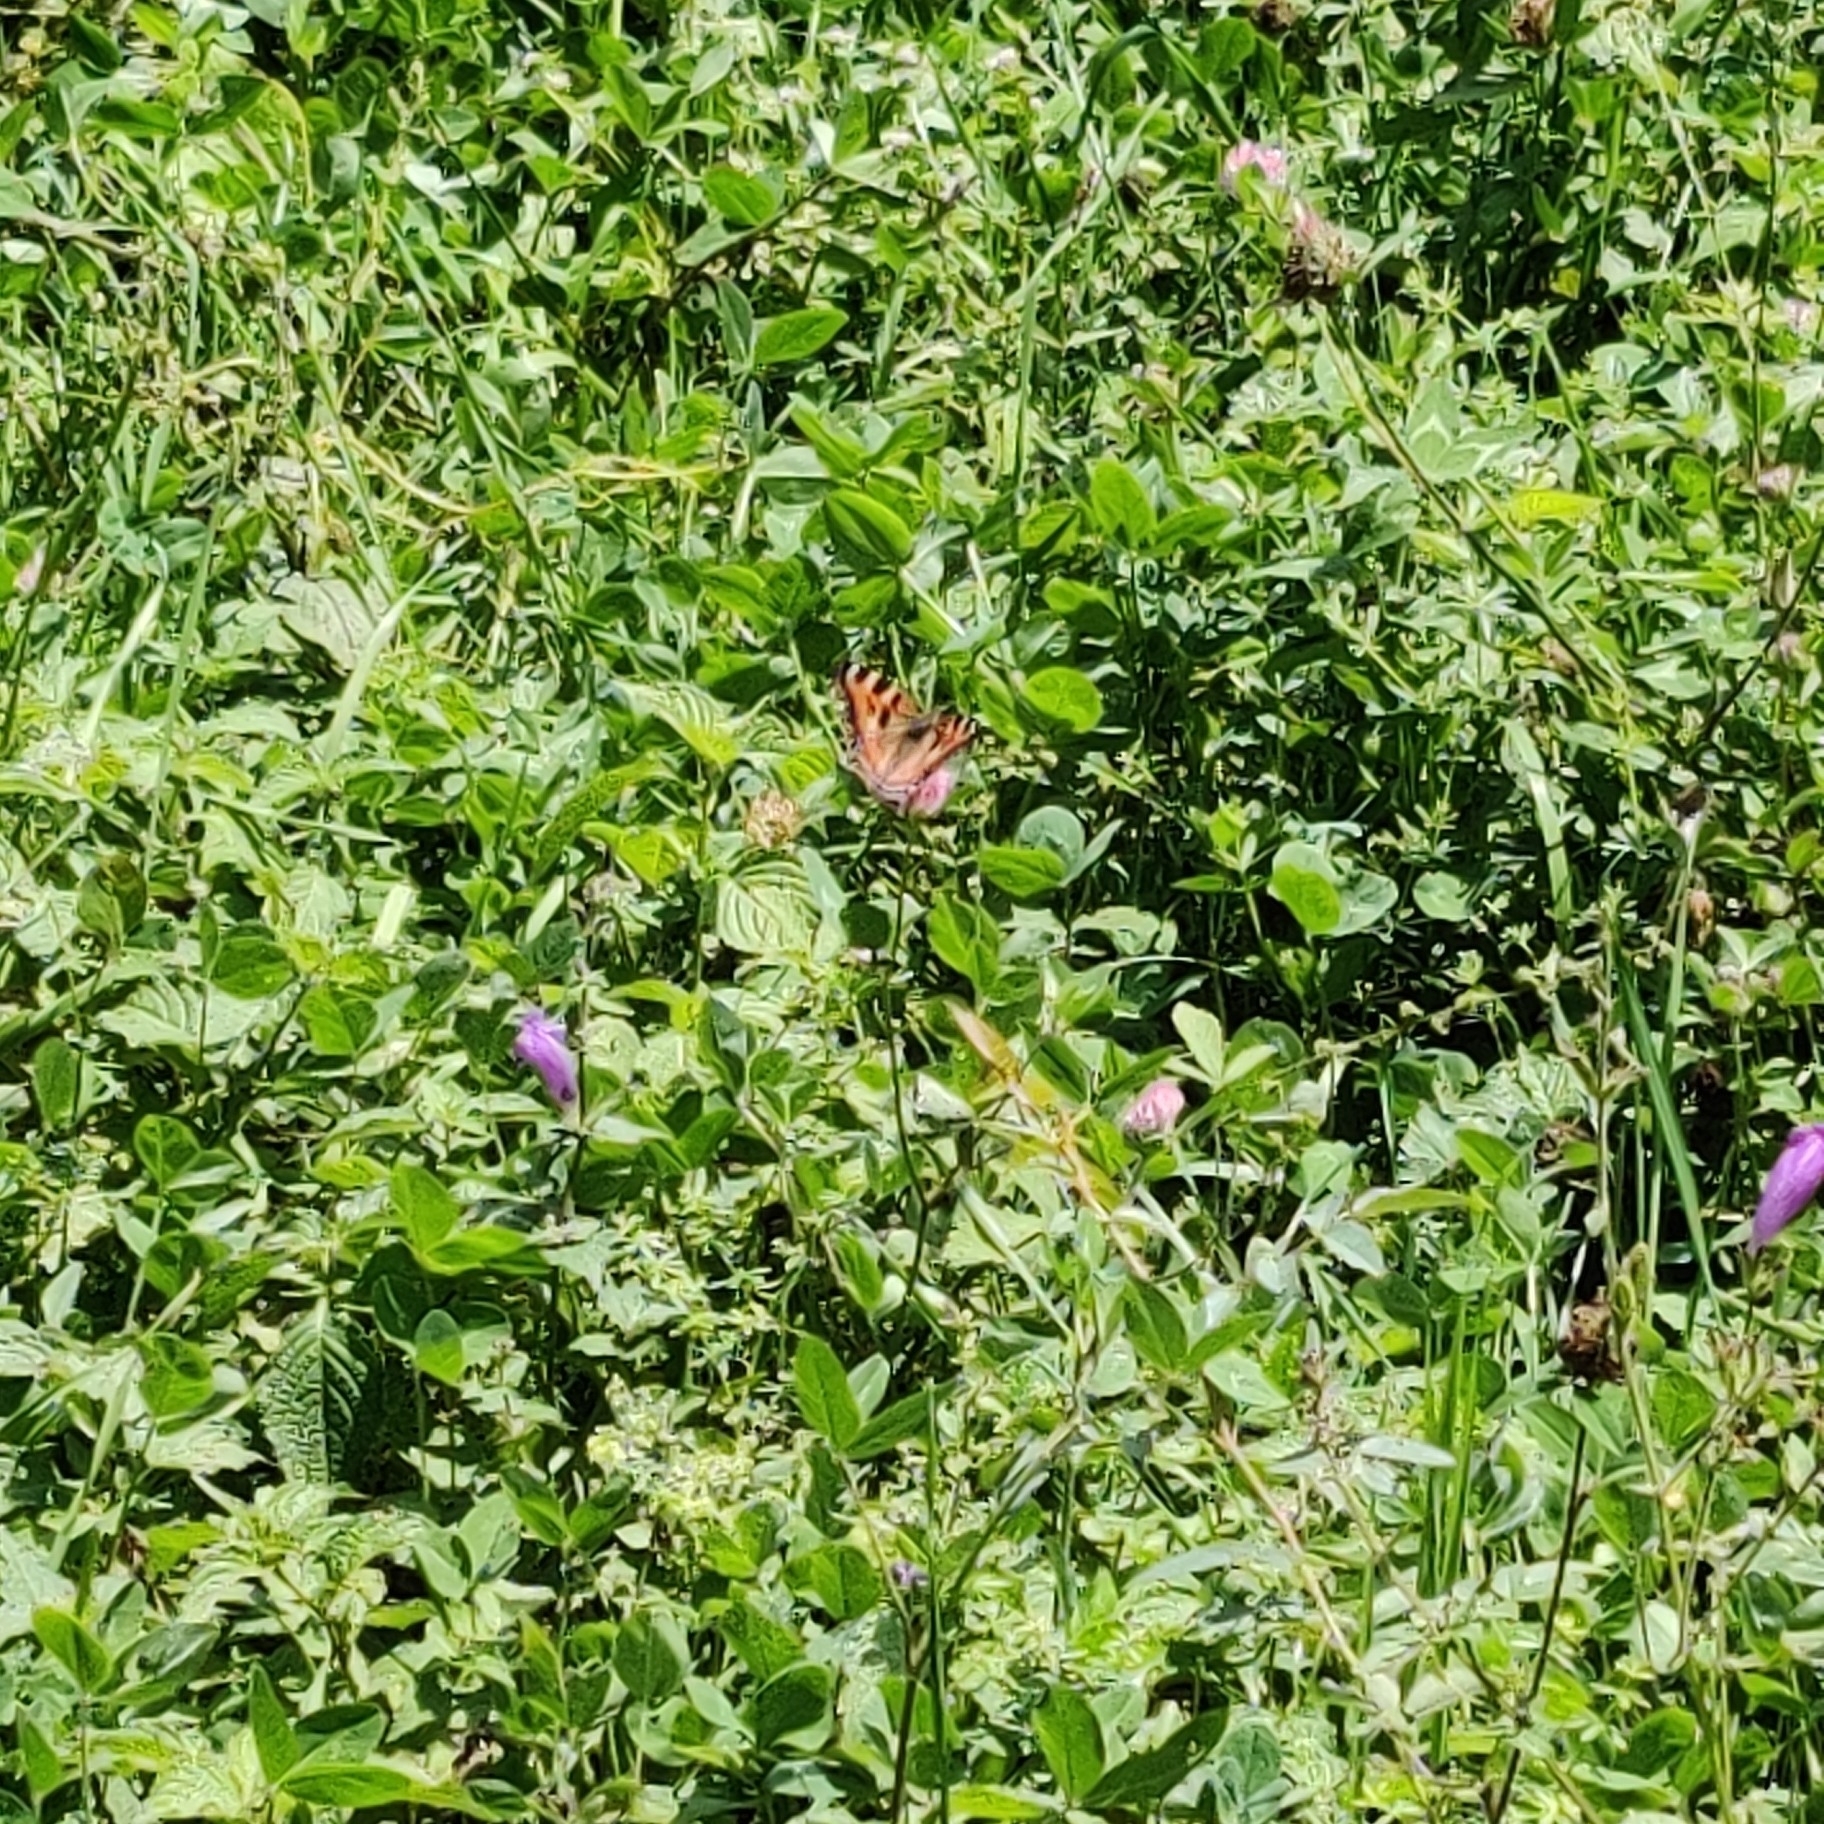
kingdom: Animalia
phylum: Arthropoda
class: Insecta
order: Lepidoptera
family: Nymphalidae
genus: Aglais
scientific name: Aglais caschmirensis
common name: Indian tortoiseshell
